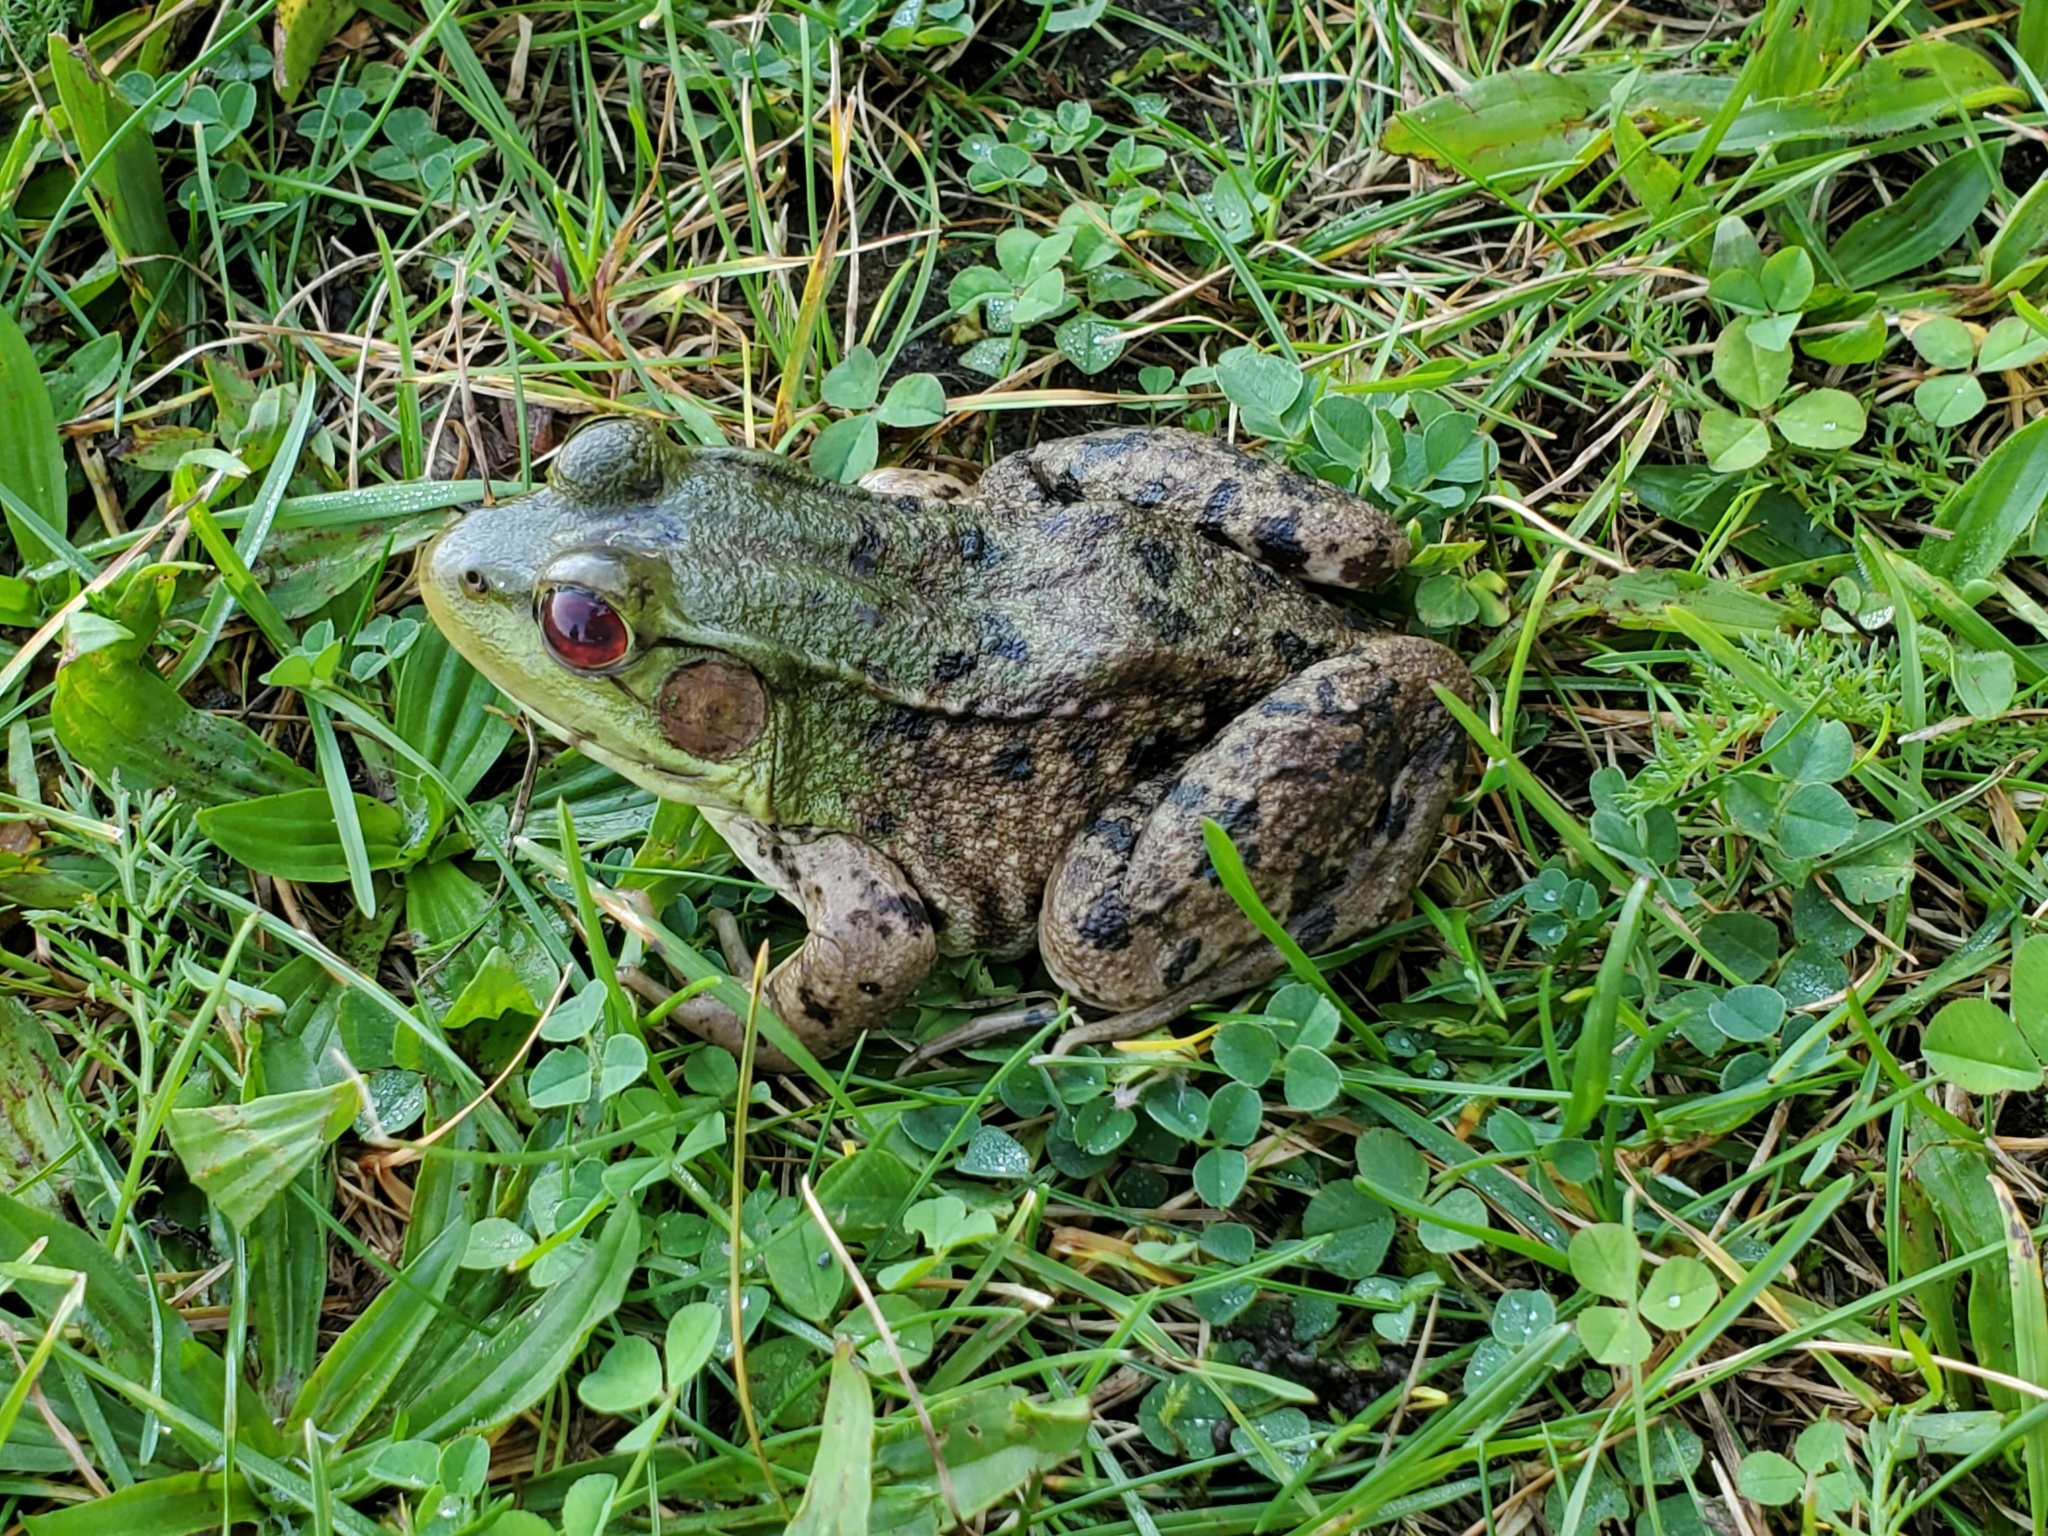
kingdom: Animalia
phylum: Chordata
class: Amphibia
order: Anura
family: Ranidae
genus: Lithobates
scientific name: Lithobates clamitans
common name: Green frog
